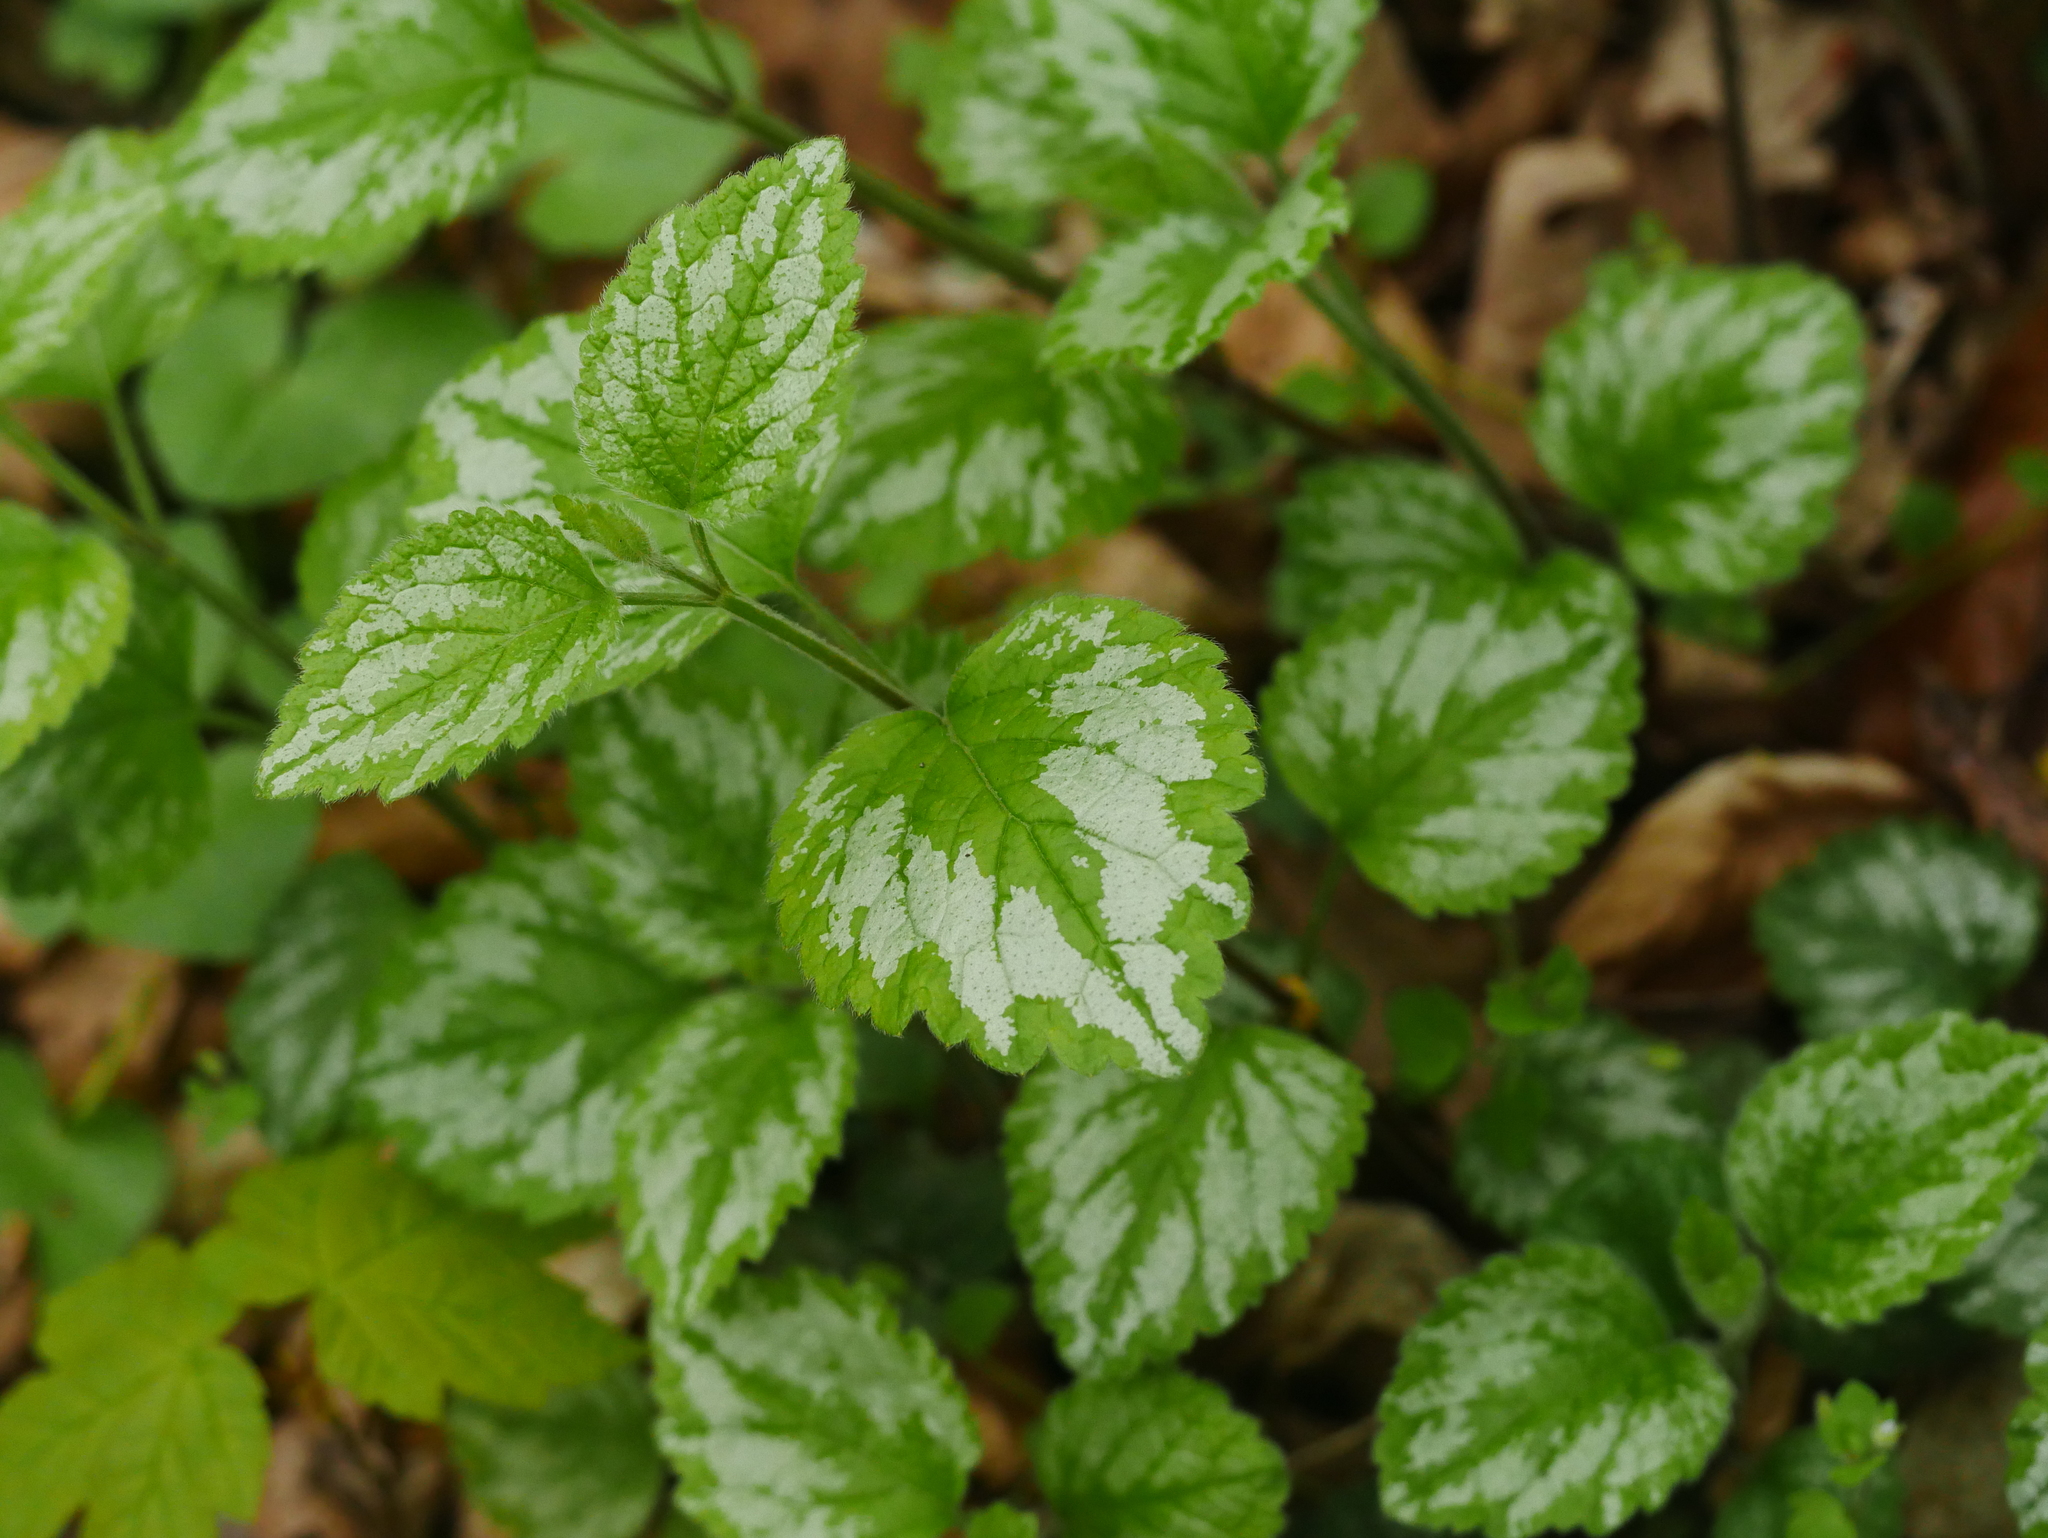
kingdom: Plantae
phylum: Tracheophyta
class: Magnoliopsida
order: Lamiales
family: Lamiaceae
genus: Lamium
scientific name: Lamium galeobdolon
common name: Yellow archangel
